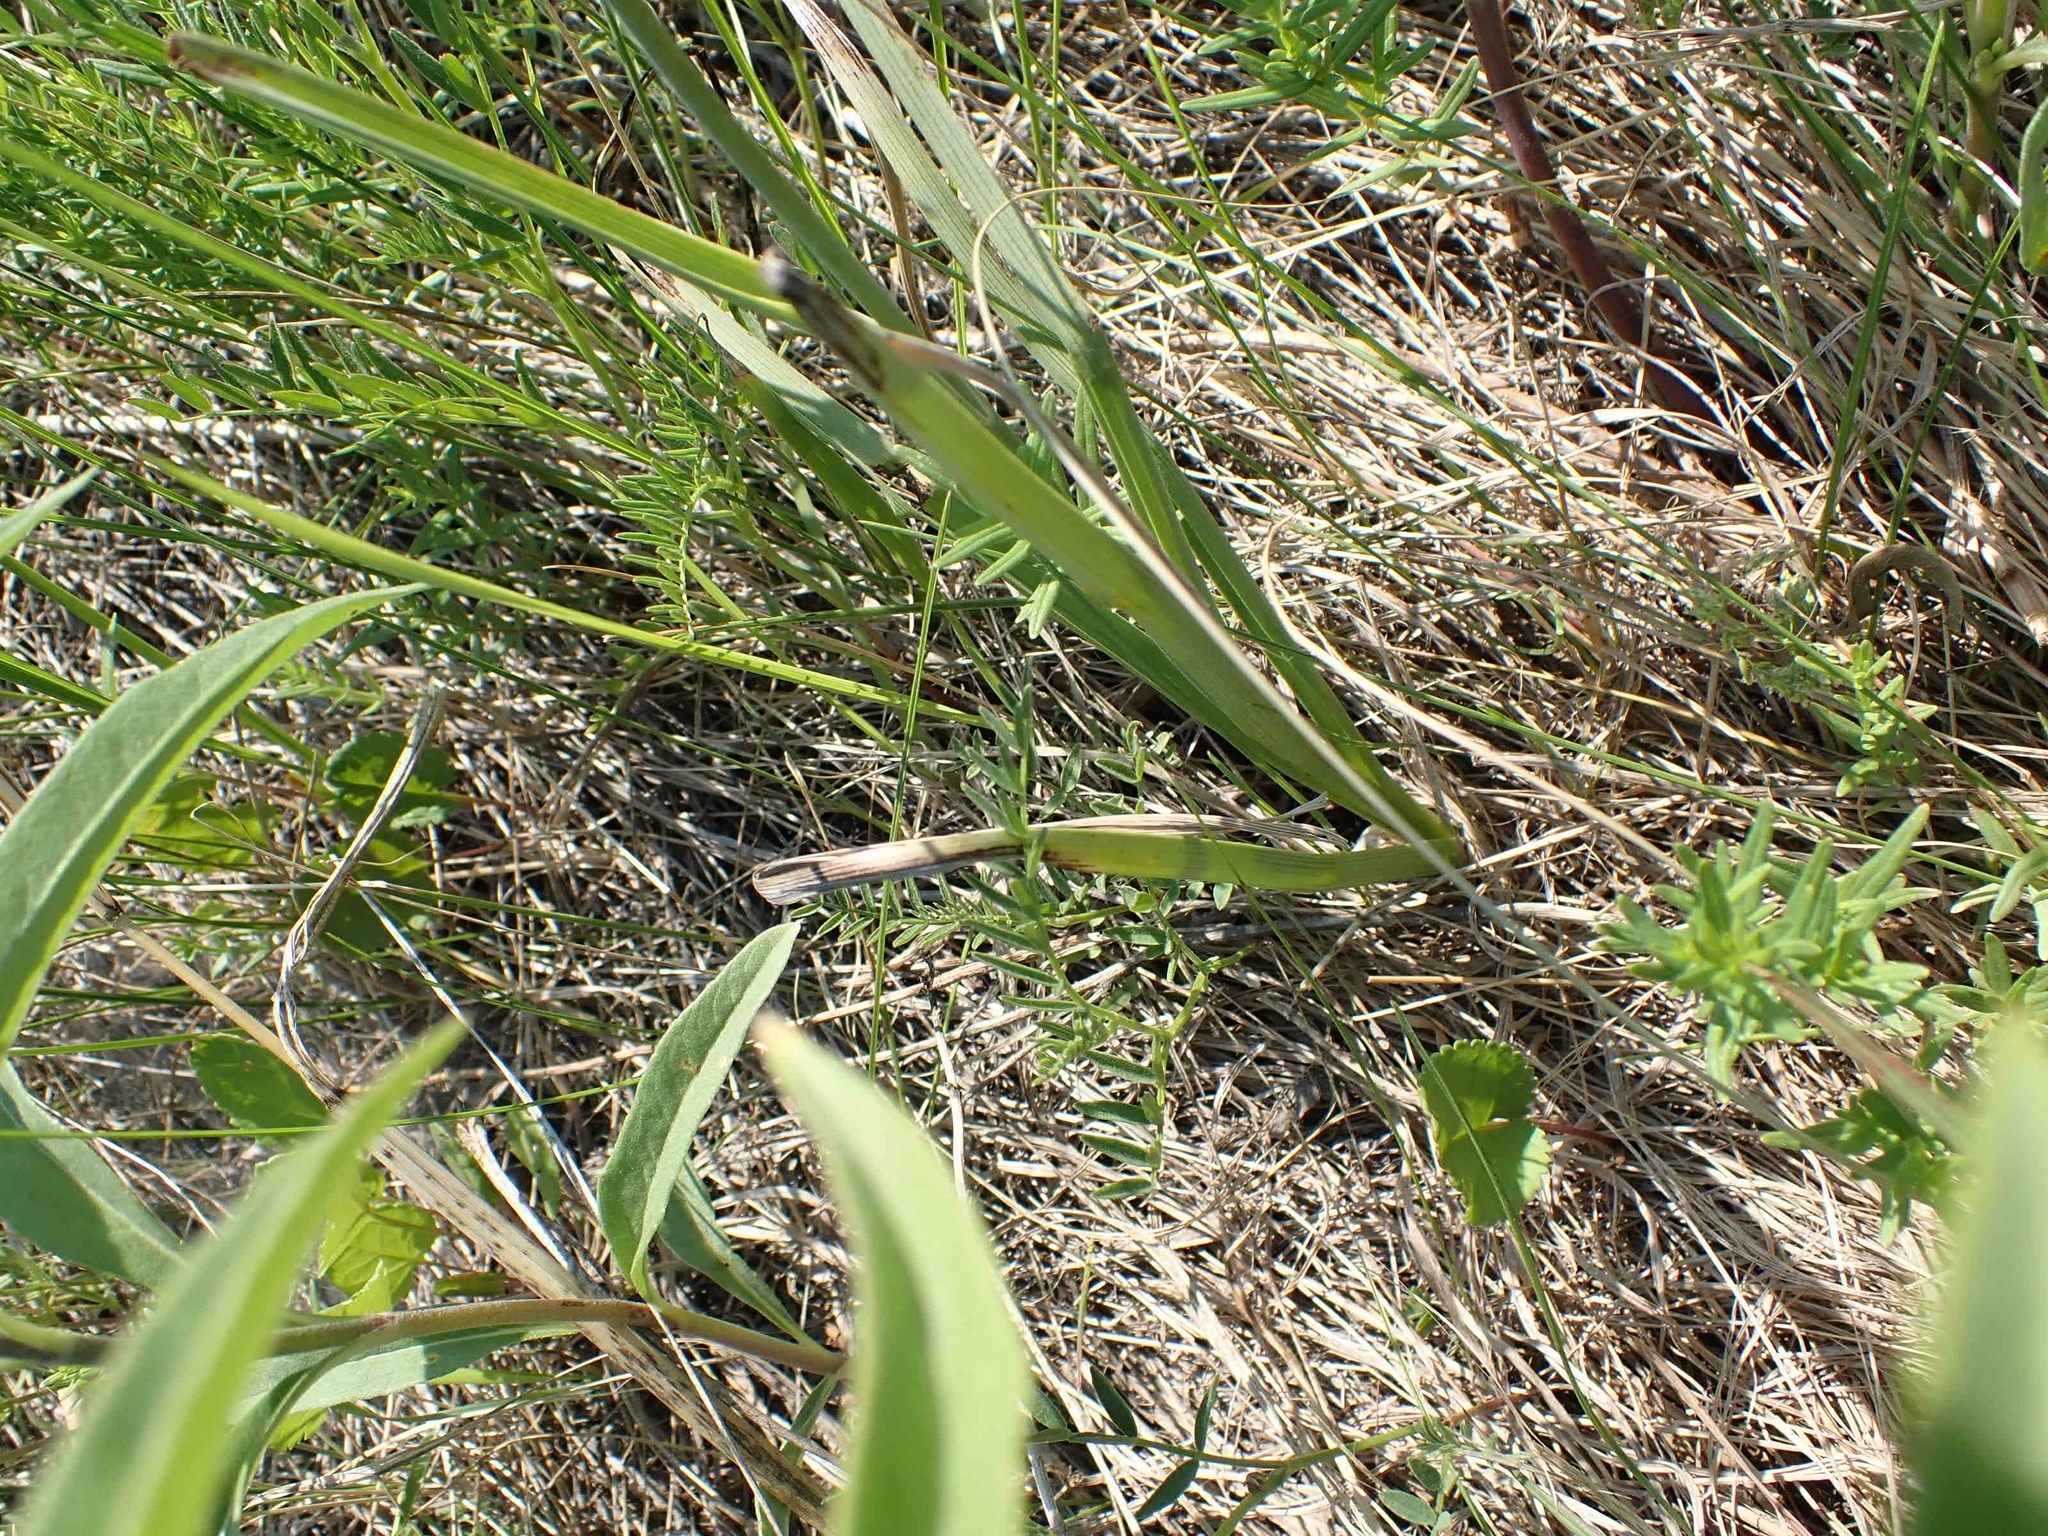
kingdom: Plantae
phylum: Tracheophyta
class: Liliopsida
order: Liliales
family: Melanthiaceae
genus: Anticlea
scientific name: Anticlea elegans
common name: Mountain death camas
